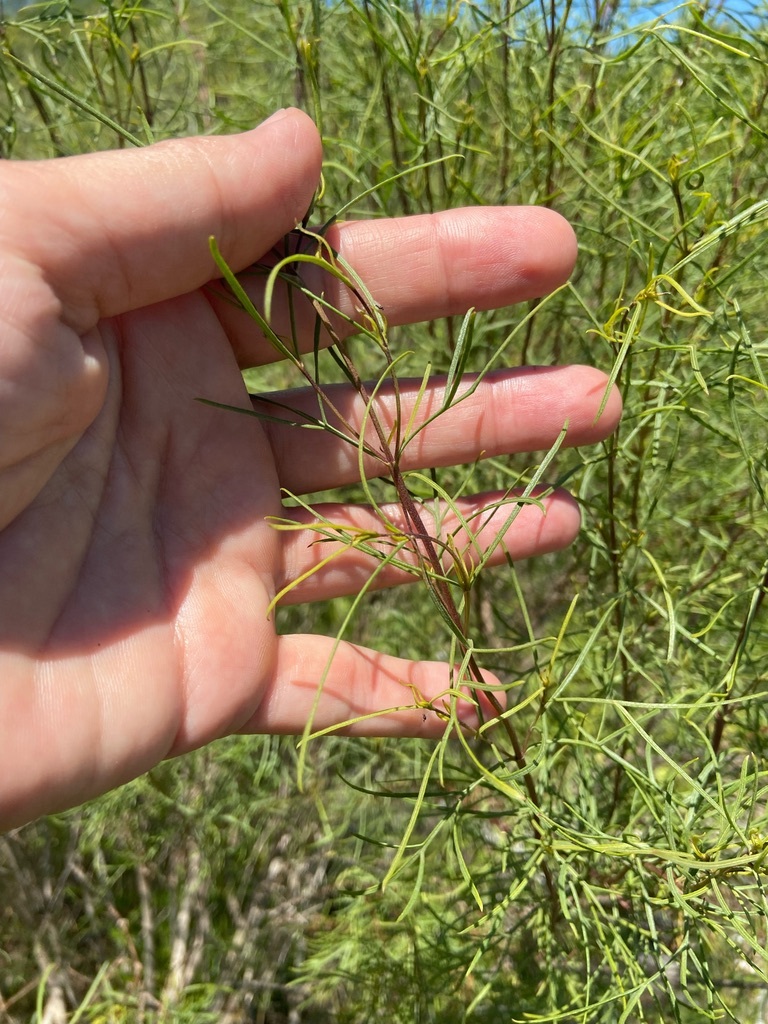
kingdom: Plantae
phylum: Tracheophyta
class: Magnoliopsida
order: Asterales
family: Asteraceae
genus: Acanthostyles
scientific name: Acanthostyles buniifolius
